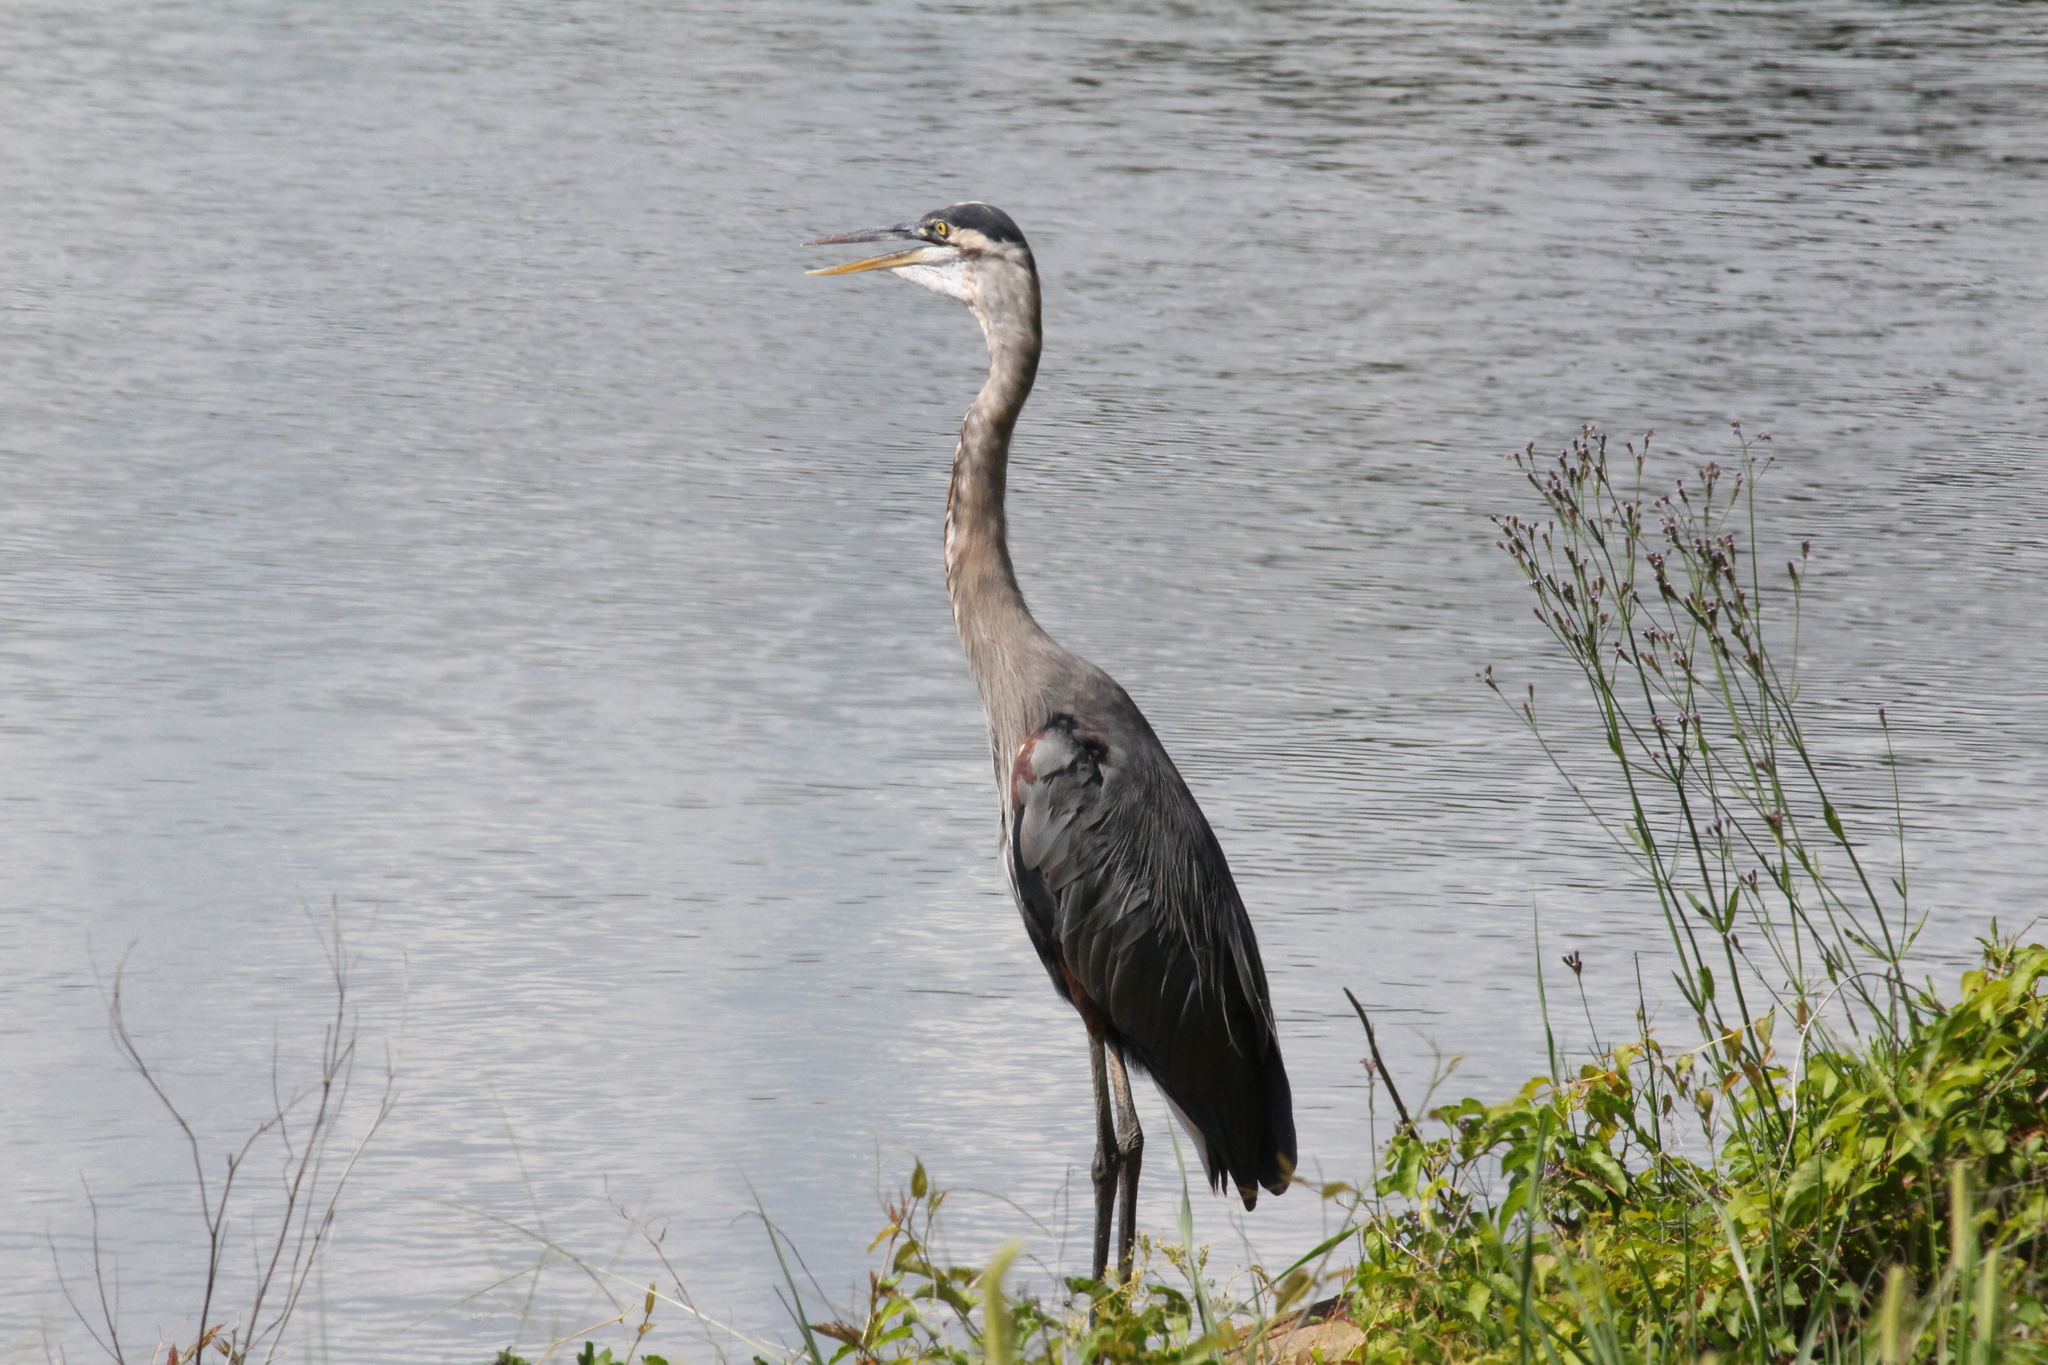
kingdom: Animalia
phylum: Chordata
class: Aves
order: Pelecaniformes
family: Ardeidae
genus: Ardea
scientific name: Ardea herodias
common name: Great blue heron
